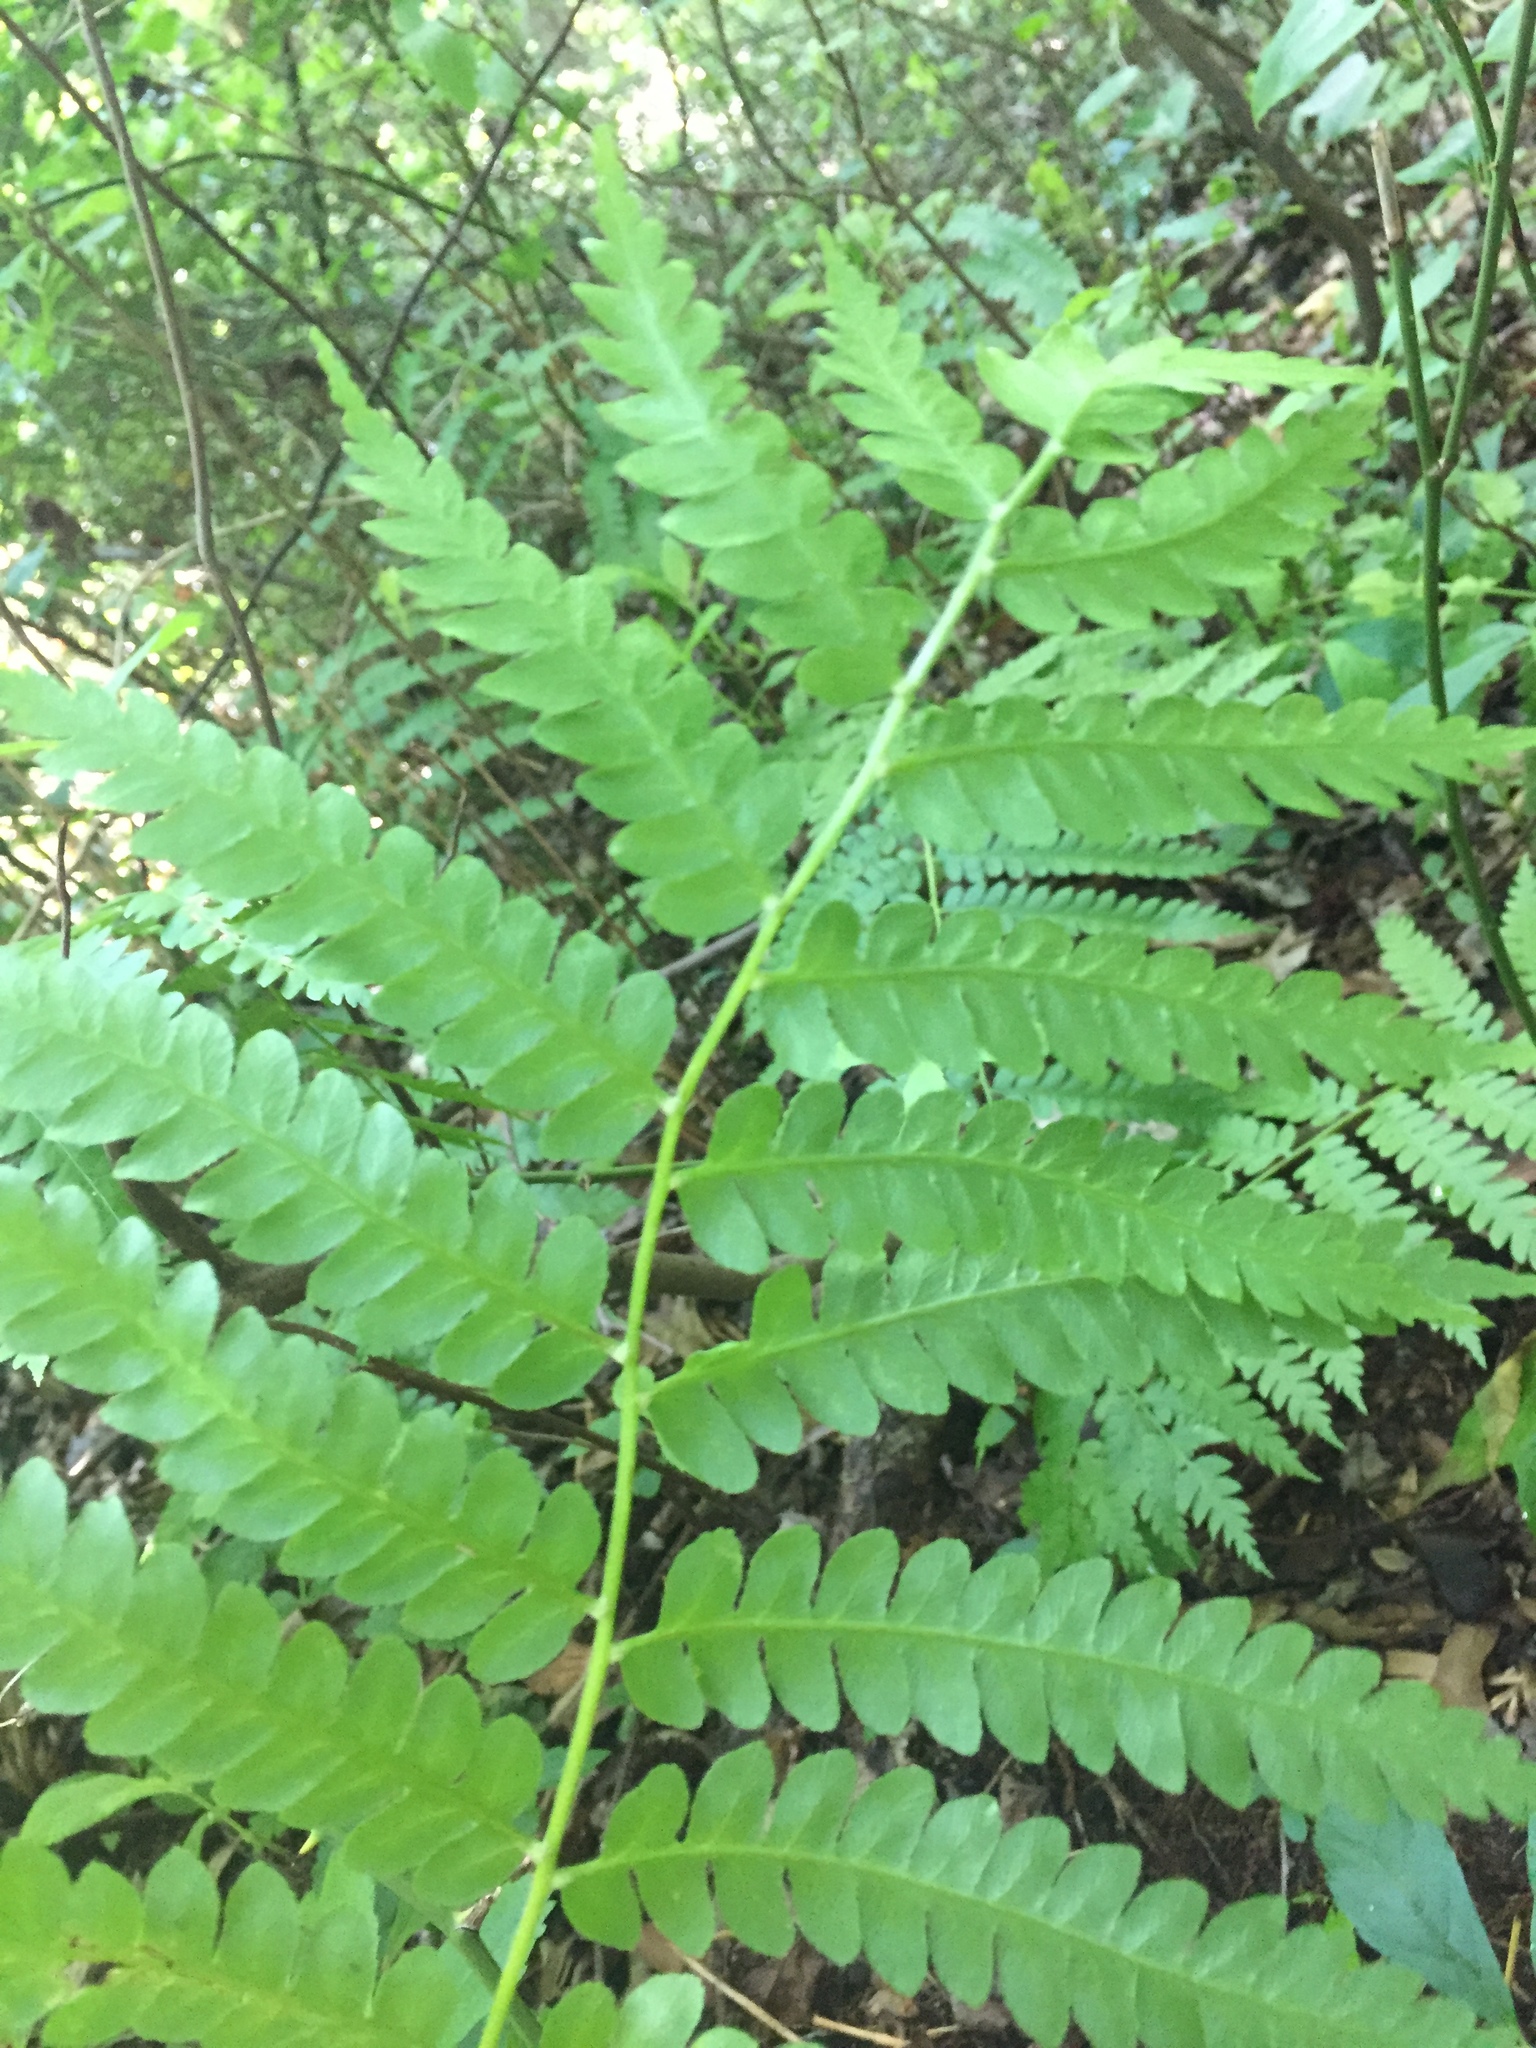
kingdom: Plantae
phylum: Tracheophyta
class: Polypodiopsida
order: Osmundales
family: Osmundaceae
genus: Osmundastrum
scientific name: Osmundastrum cinnamomeum
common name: Cinnamon fern
